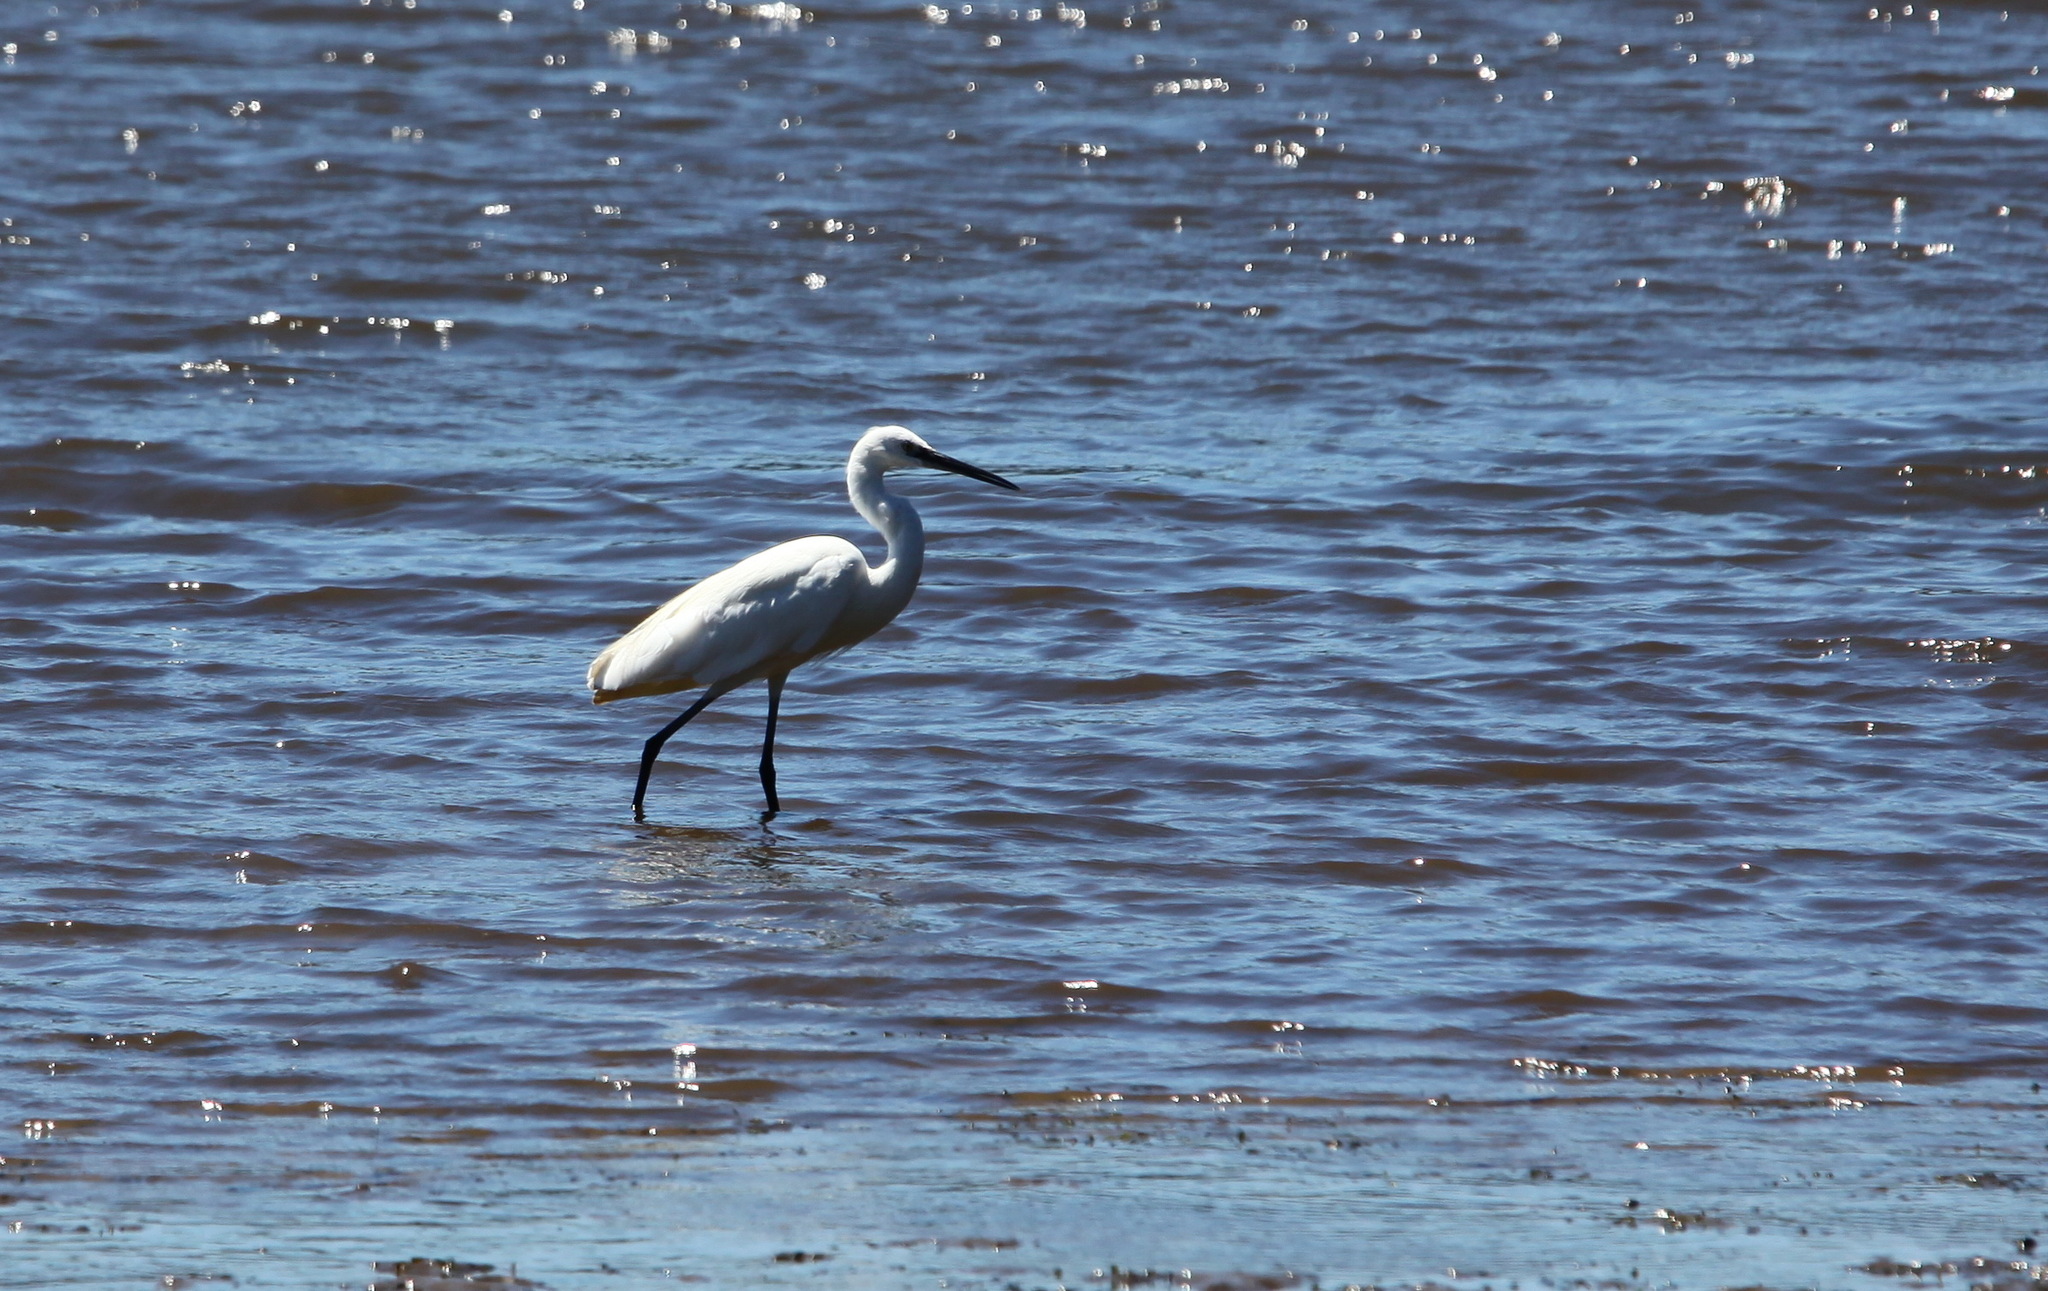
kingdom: Animalia
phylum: Chordata
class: Aves
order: Pelecaniformes
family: Ardeidae
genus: Egretta
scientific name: Egretta garzetta
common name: Little egret
